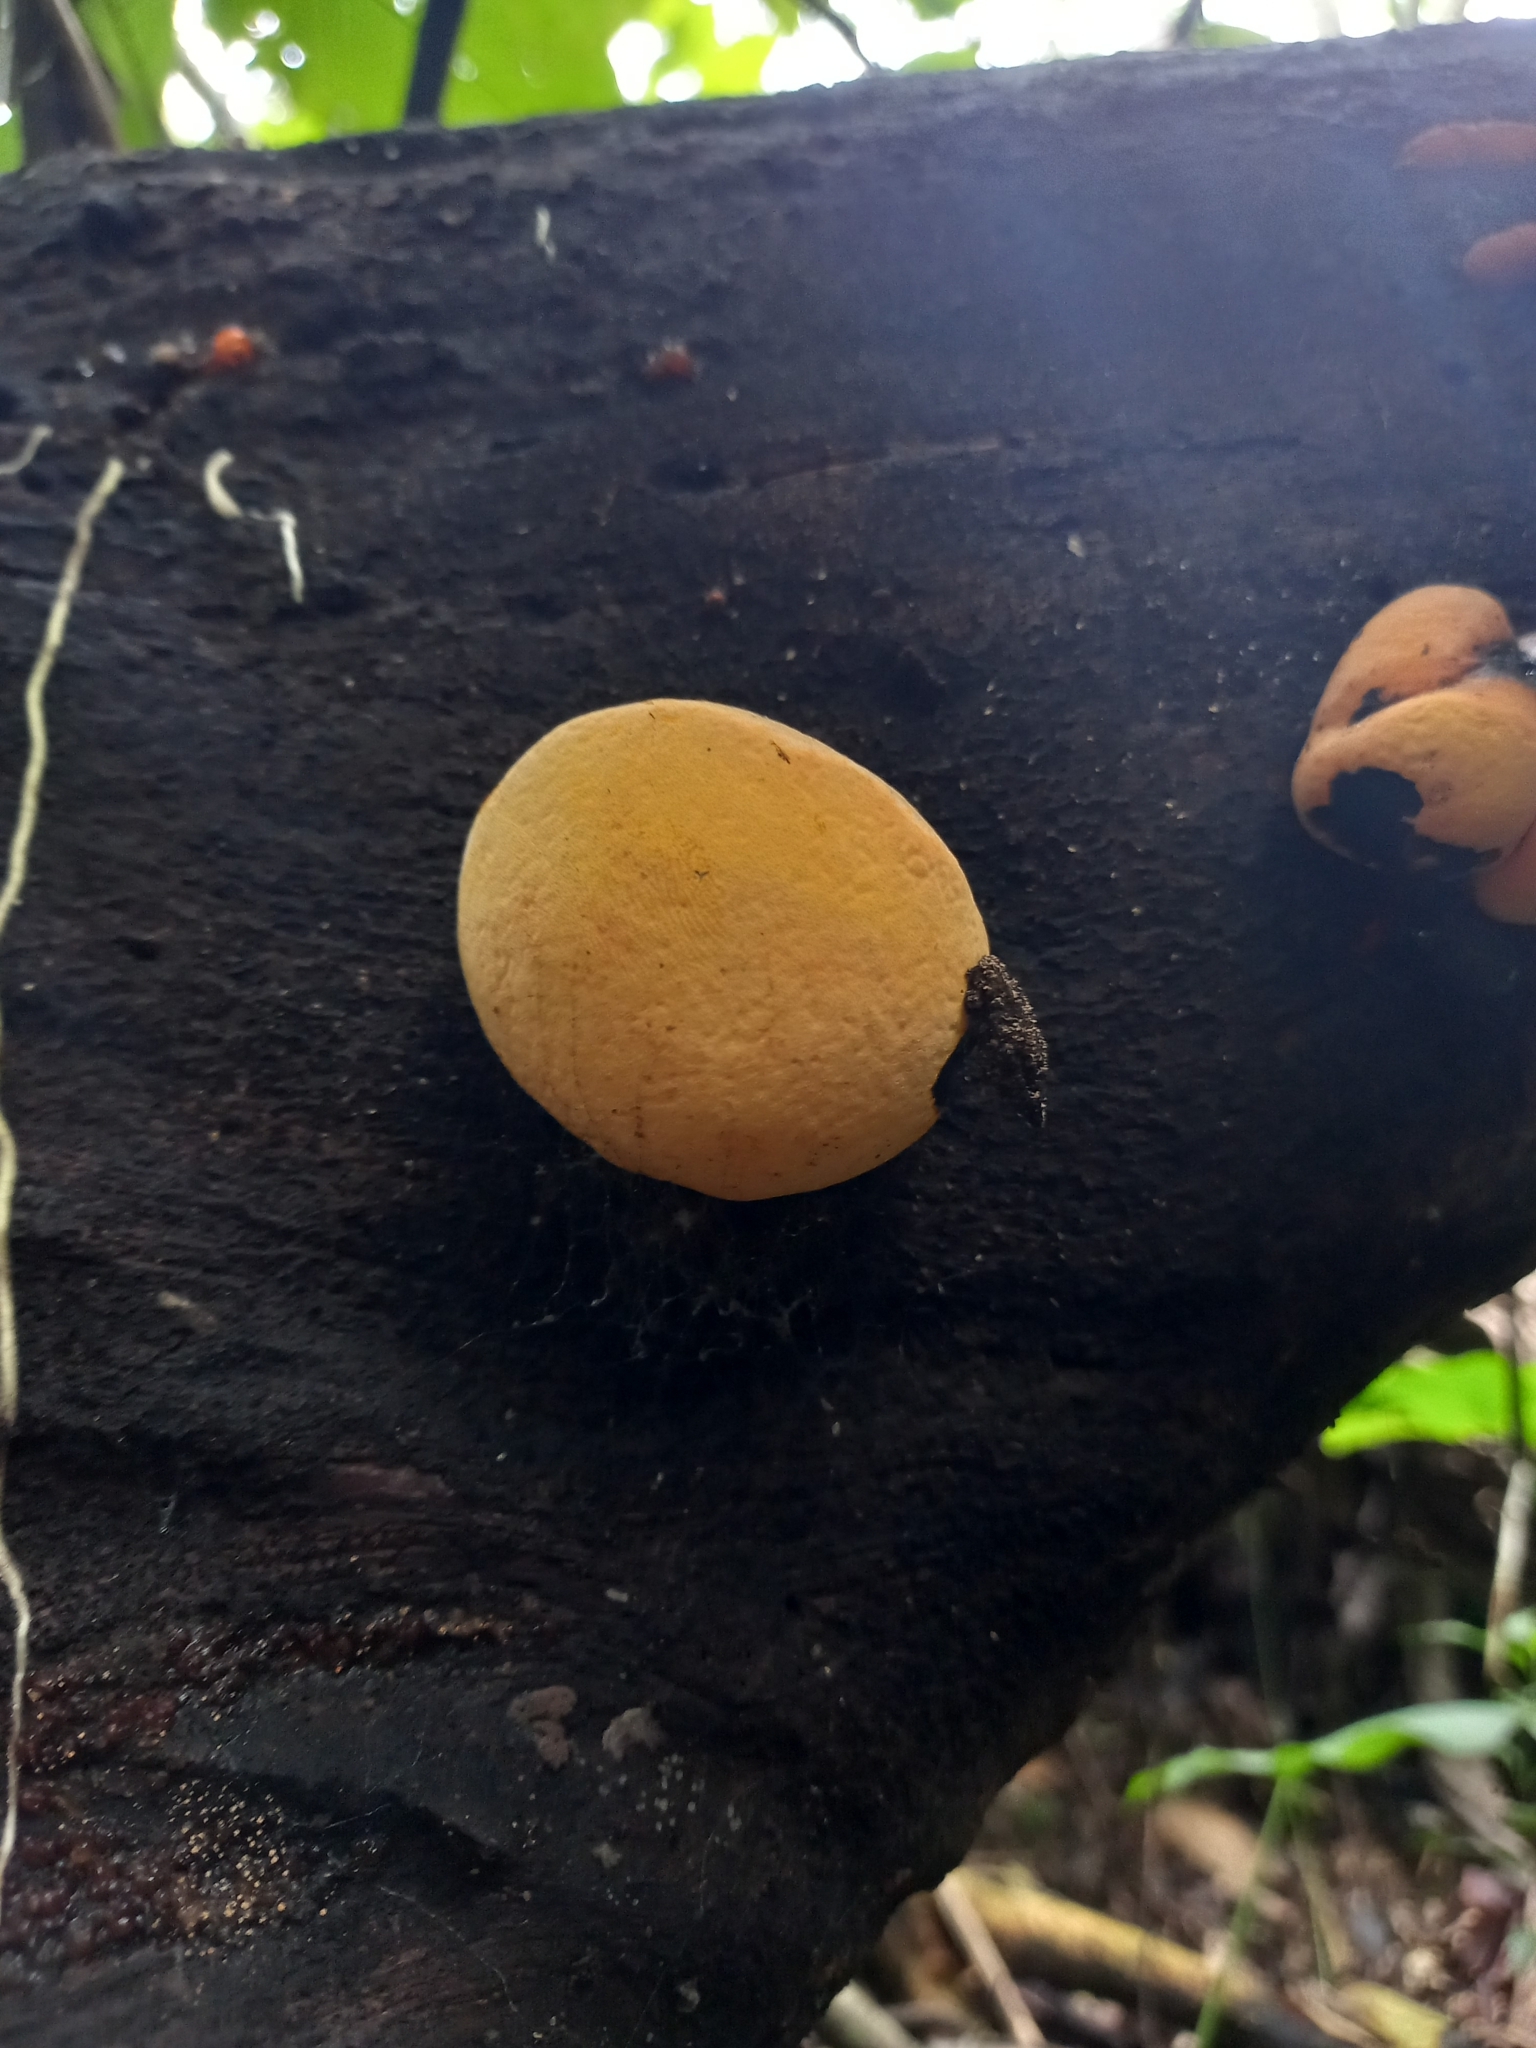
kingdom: Fungi
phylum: Ascomycota
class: Sordariomycetes
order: Xylariales
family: Hypoxylaceae
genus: Entonaema
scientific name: Entonaema liquescens
